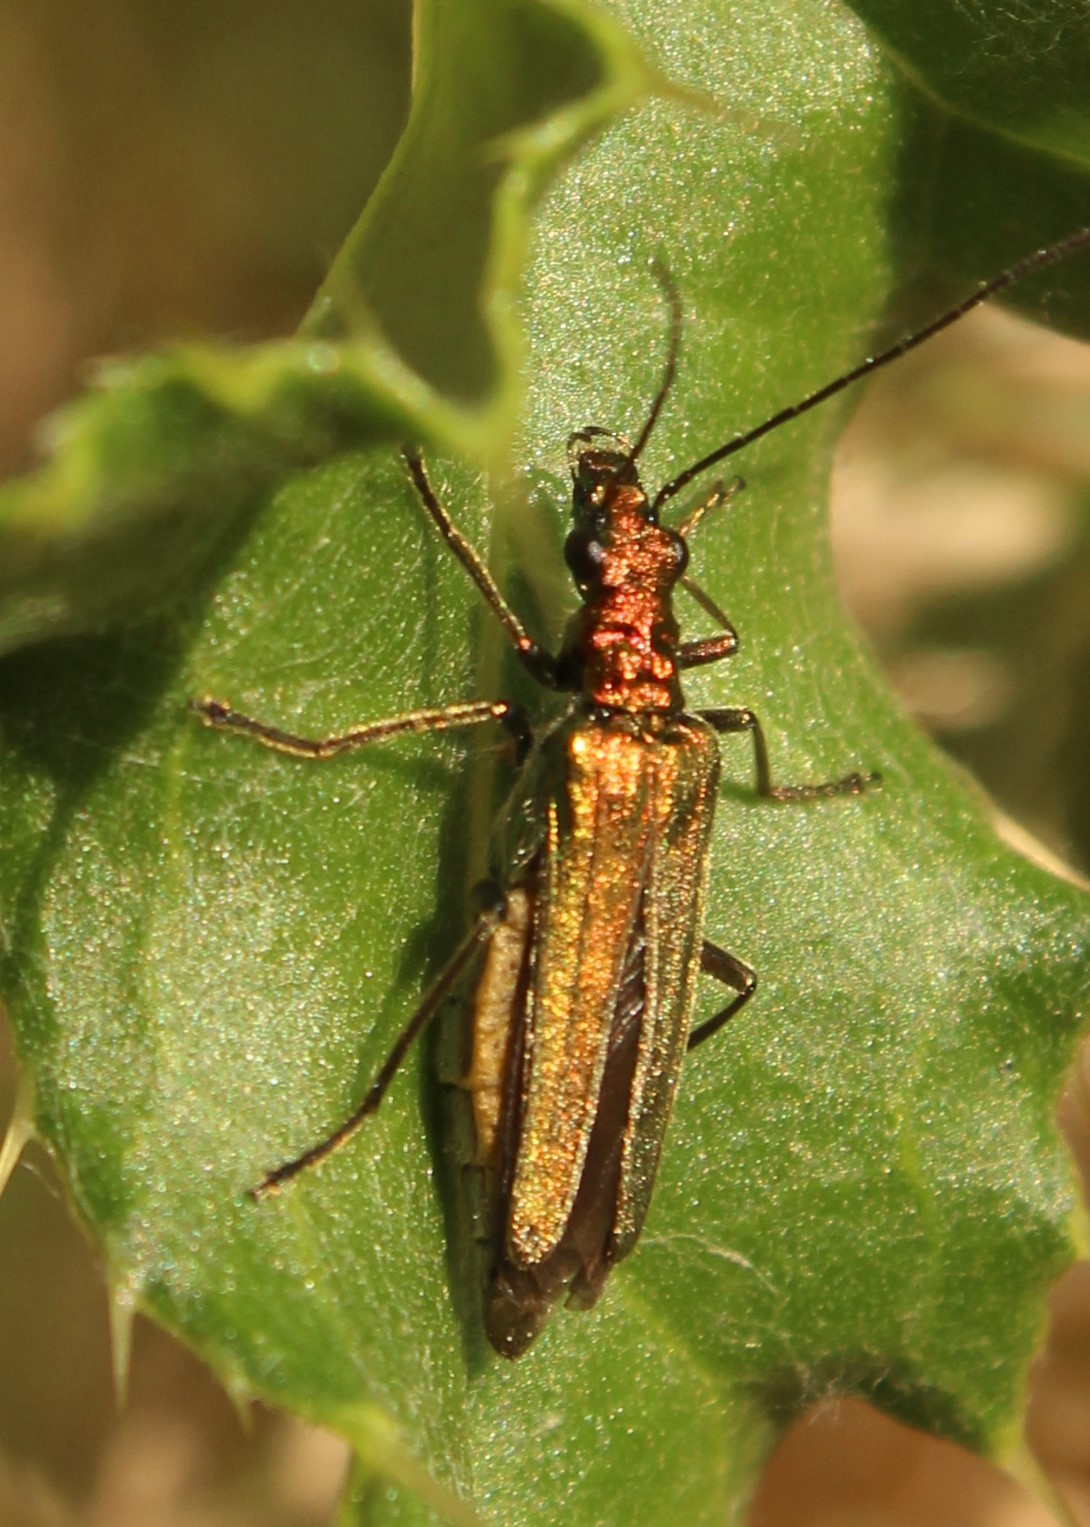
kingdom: Animalia
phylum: Arthropoda
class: Insecta
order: Coleoptera
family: Oedemeridae
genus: Oedemera
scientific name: Oedemera nobilis
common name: Swollen-thighed beetle
